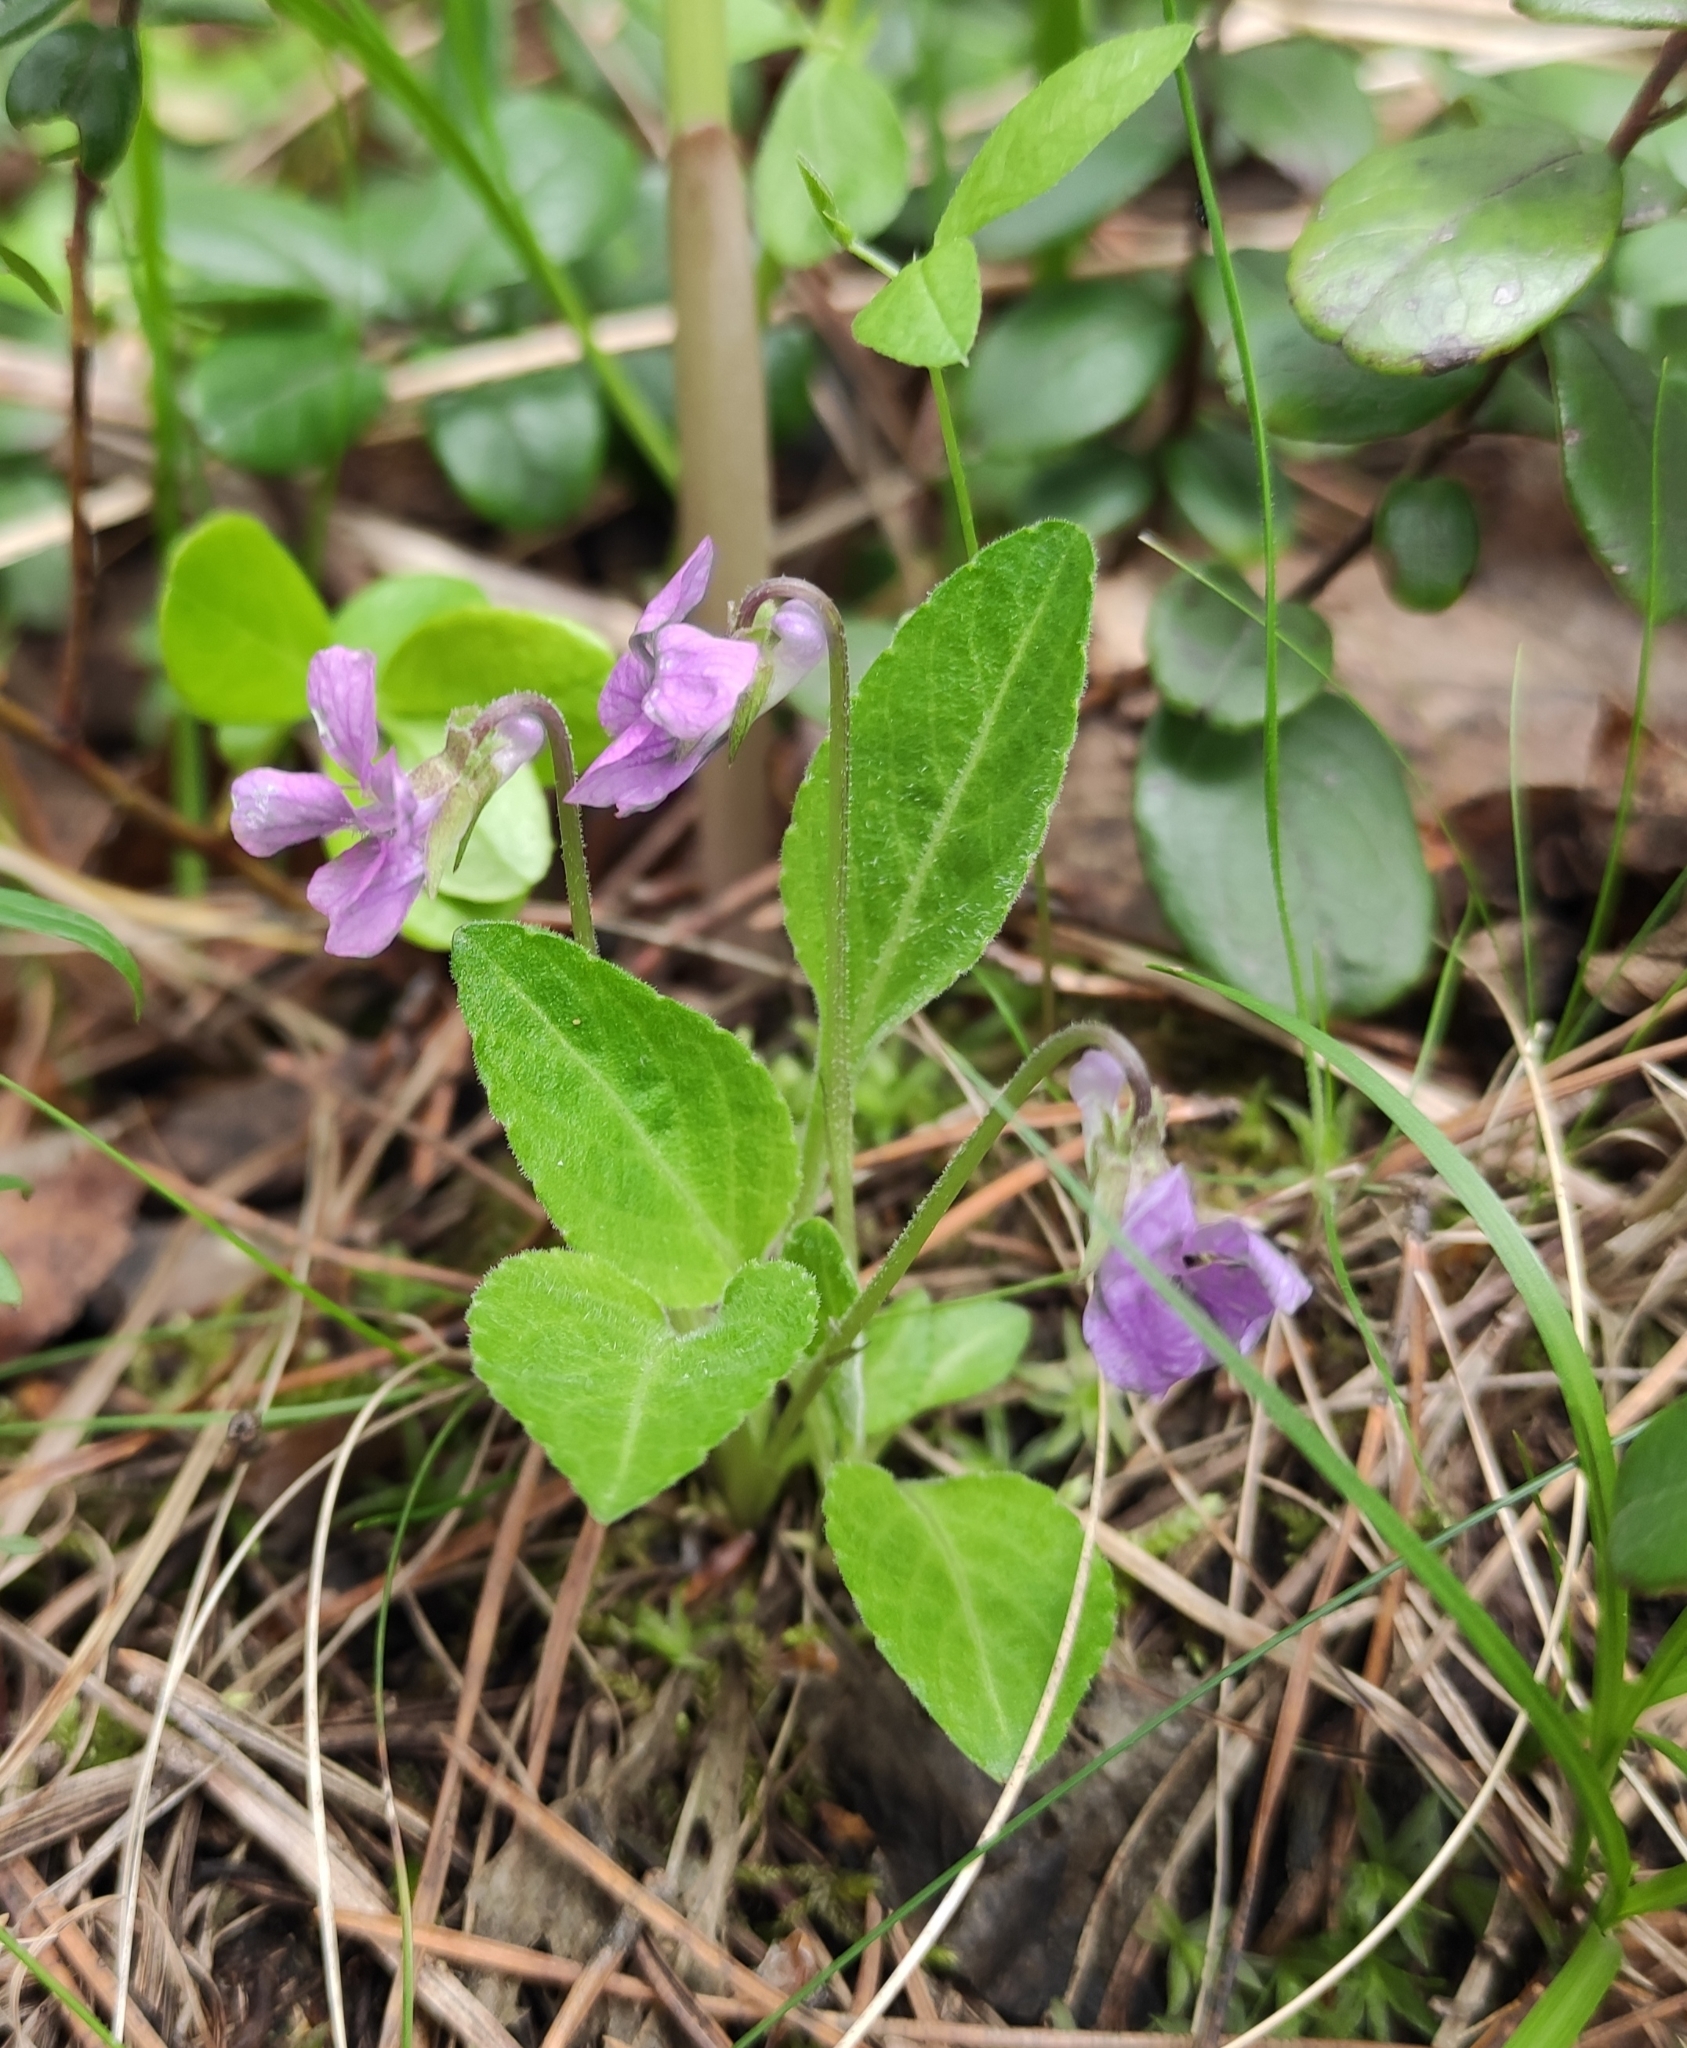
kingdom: Plantae
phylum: Tracheophyta
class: Magnoliopsida
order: Malpighiales
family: Violaceae
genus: Viola
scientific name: Viola gmeliniana
